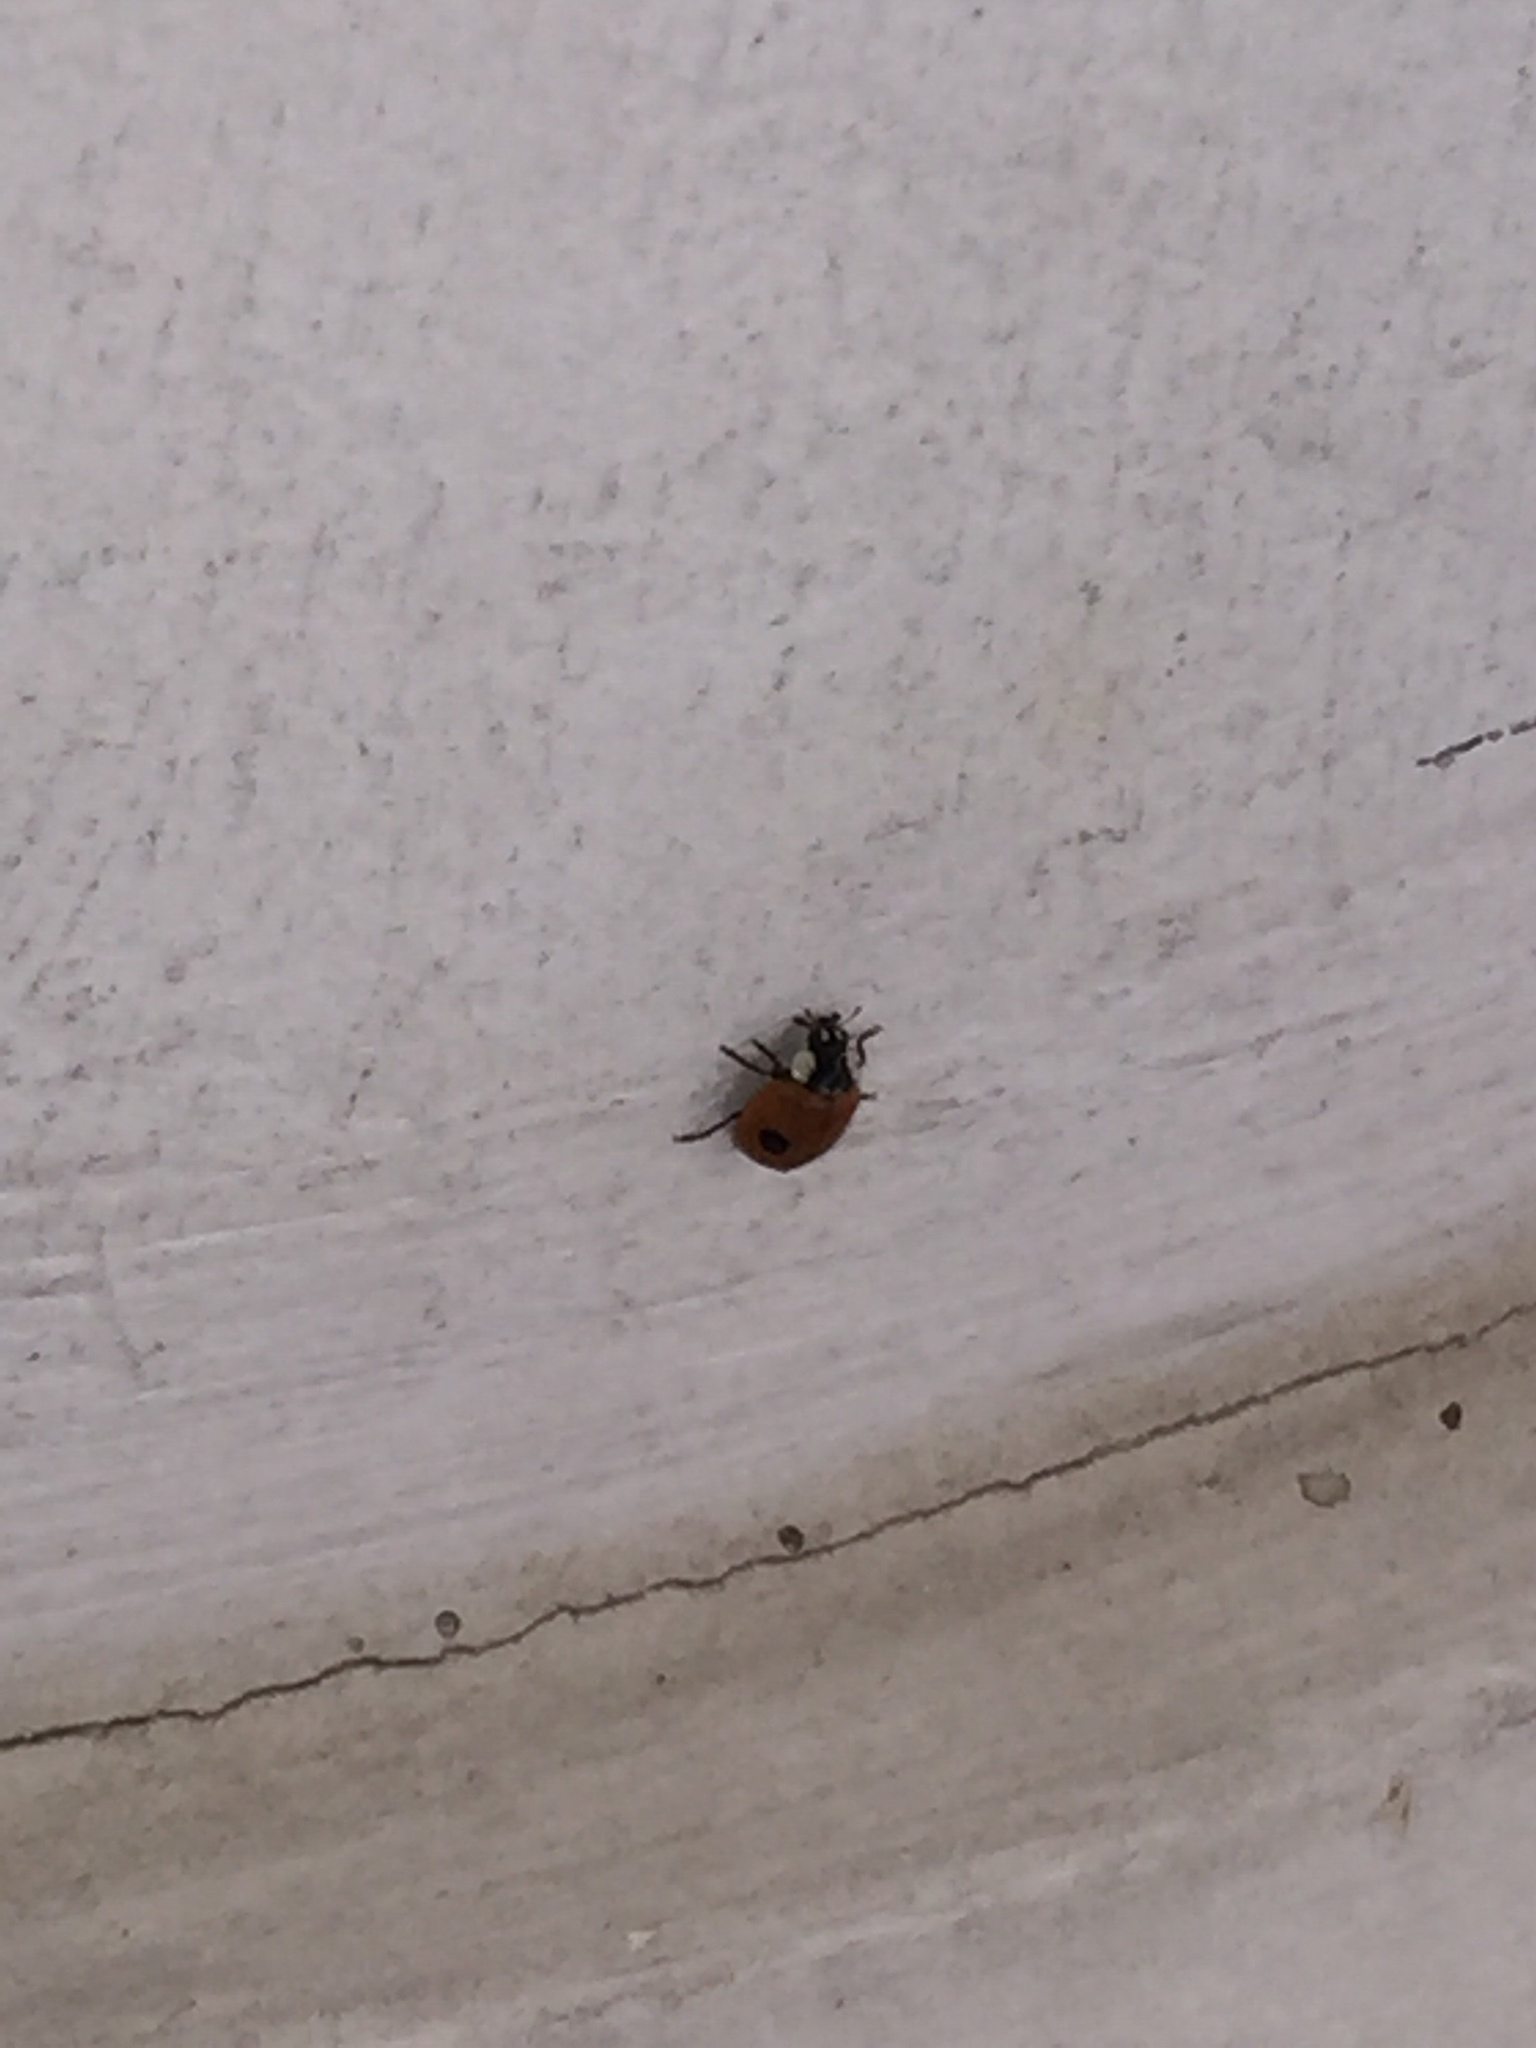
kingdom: Animalia
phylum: Arthropoda
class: Insecta
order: Coleoptera
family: Coccinellidae
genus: Adalia
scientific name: Adalia bipunctata
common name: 2-spot ladybird
